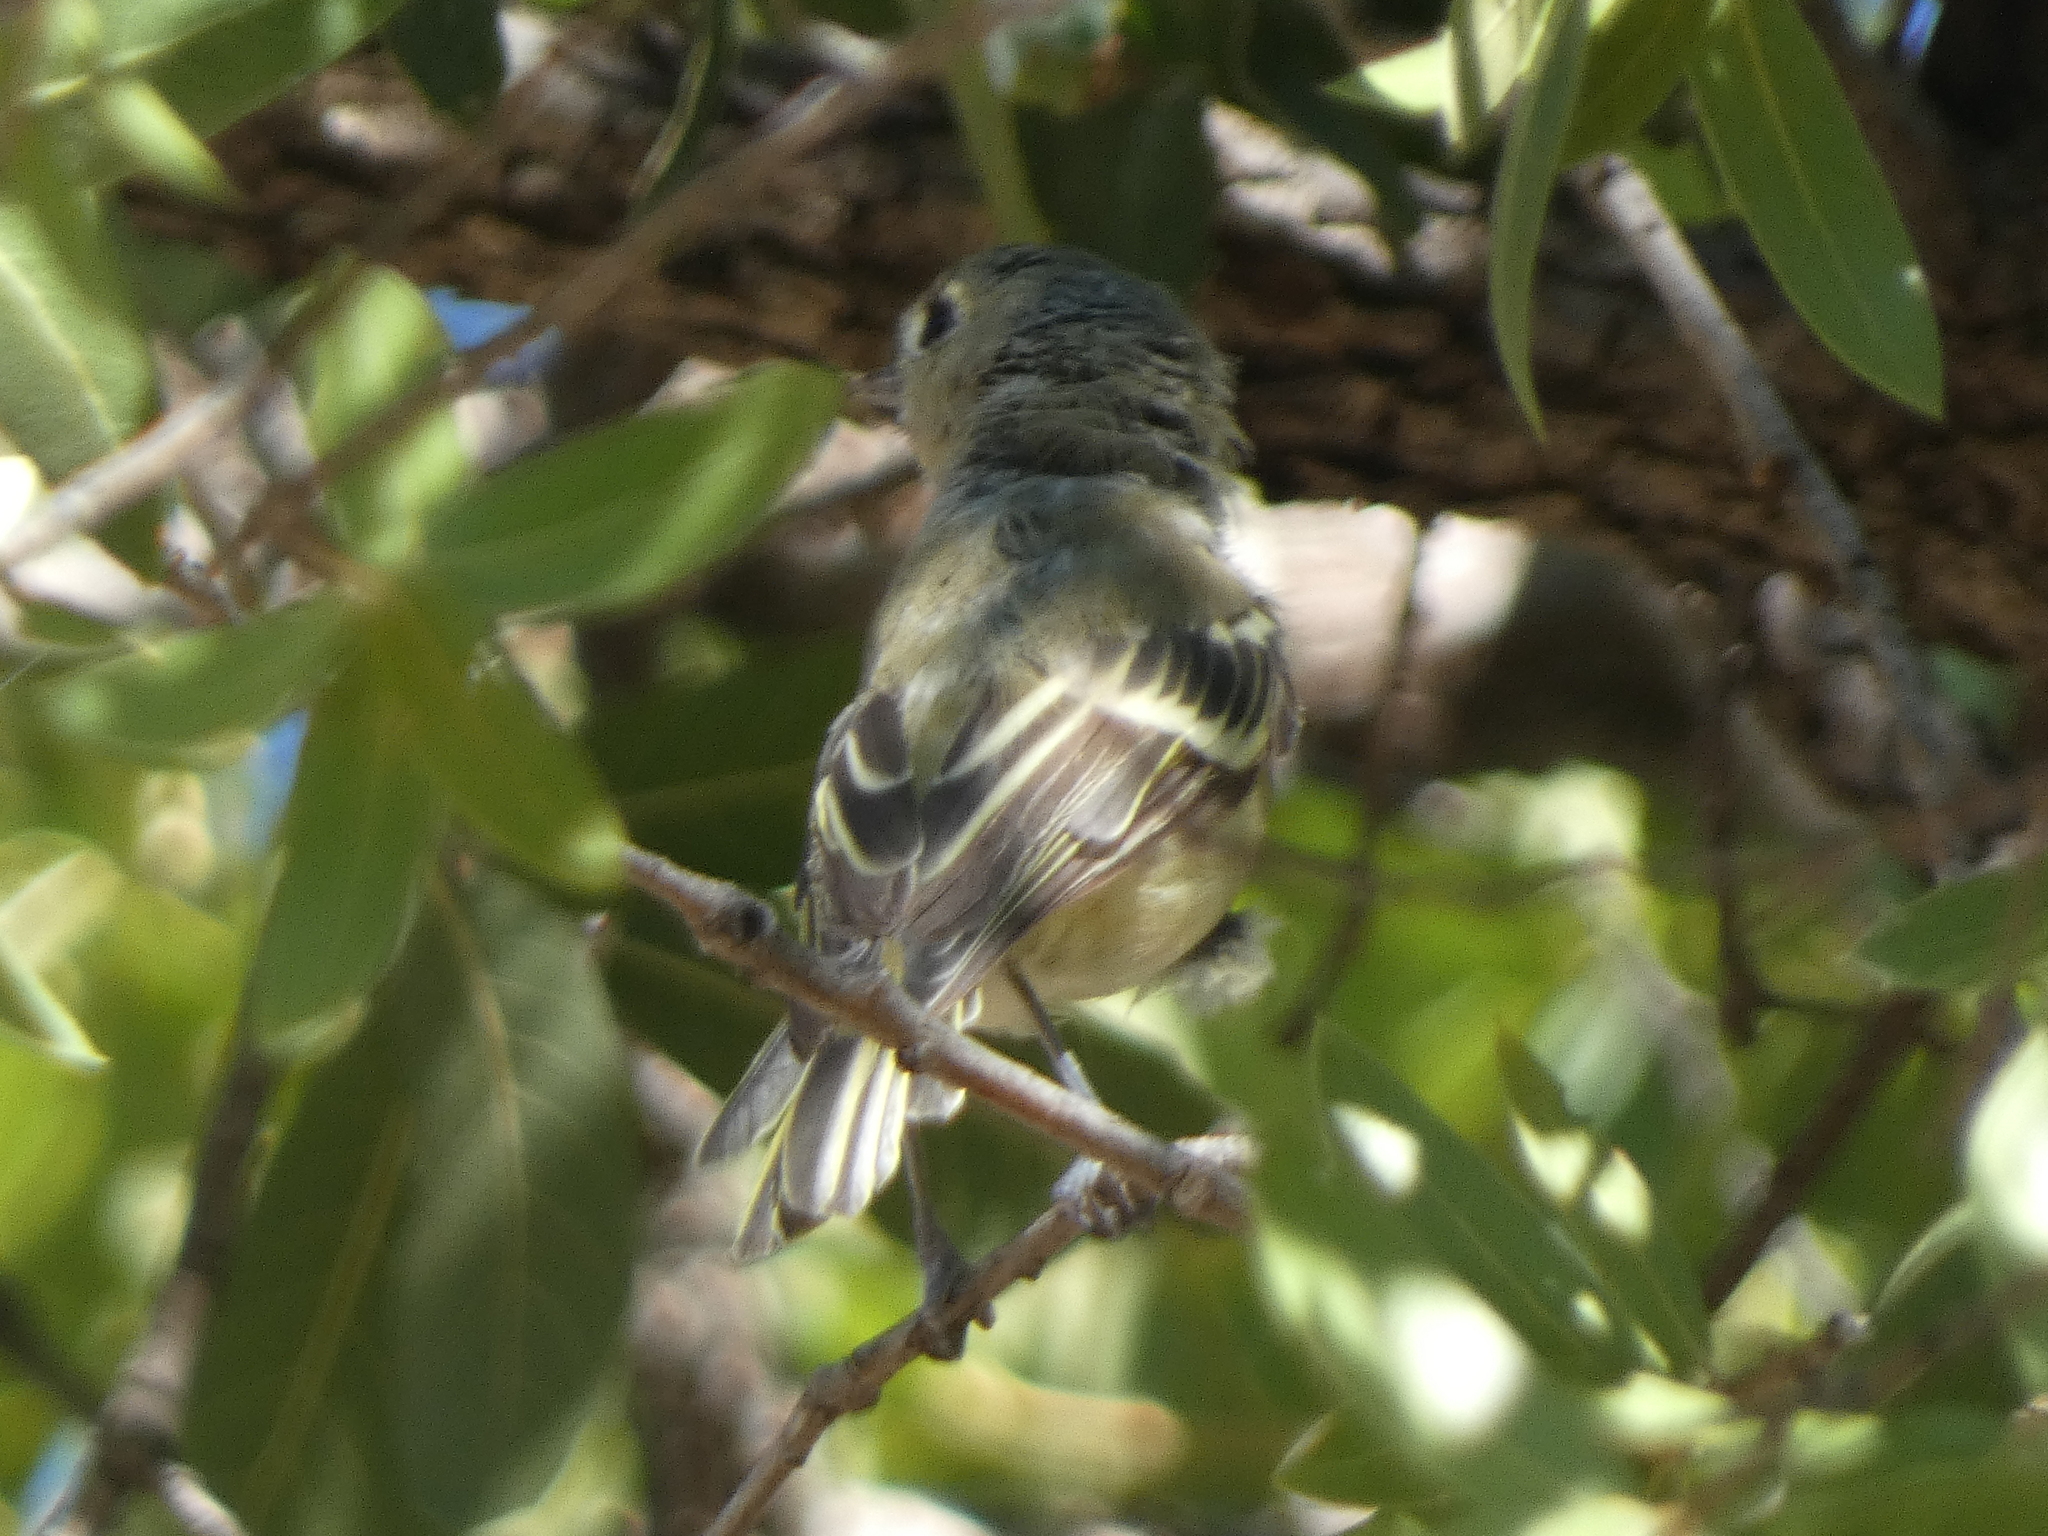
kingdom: Animalia
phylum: Chordata
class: Aves
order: Passeriformes
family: Vireonidae
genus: Vireo
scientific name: Vireo huttoni
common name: Hutton's vireo
